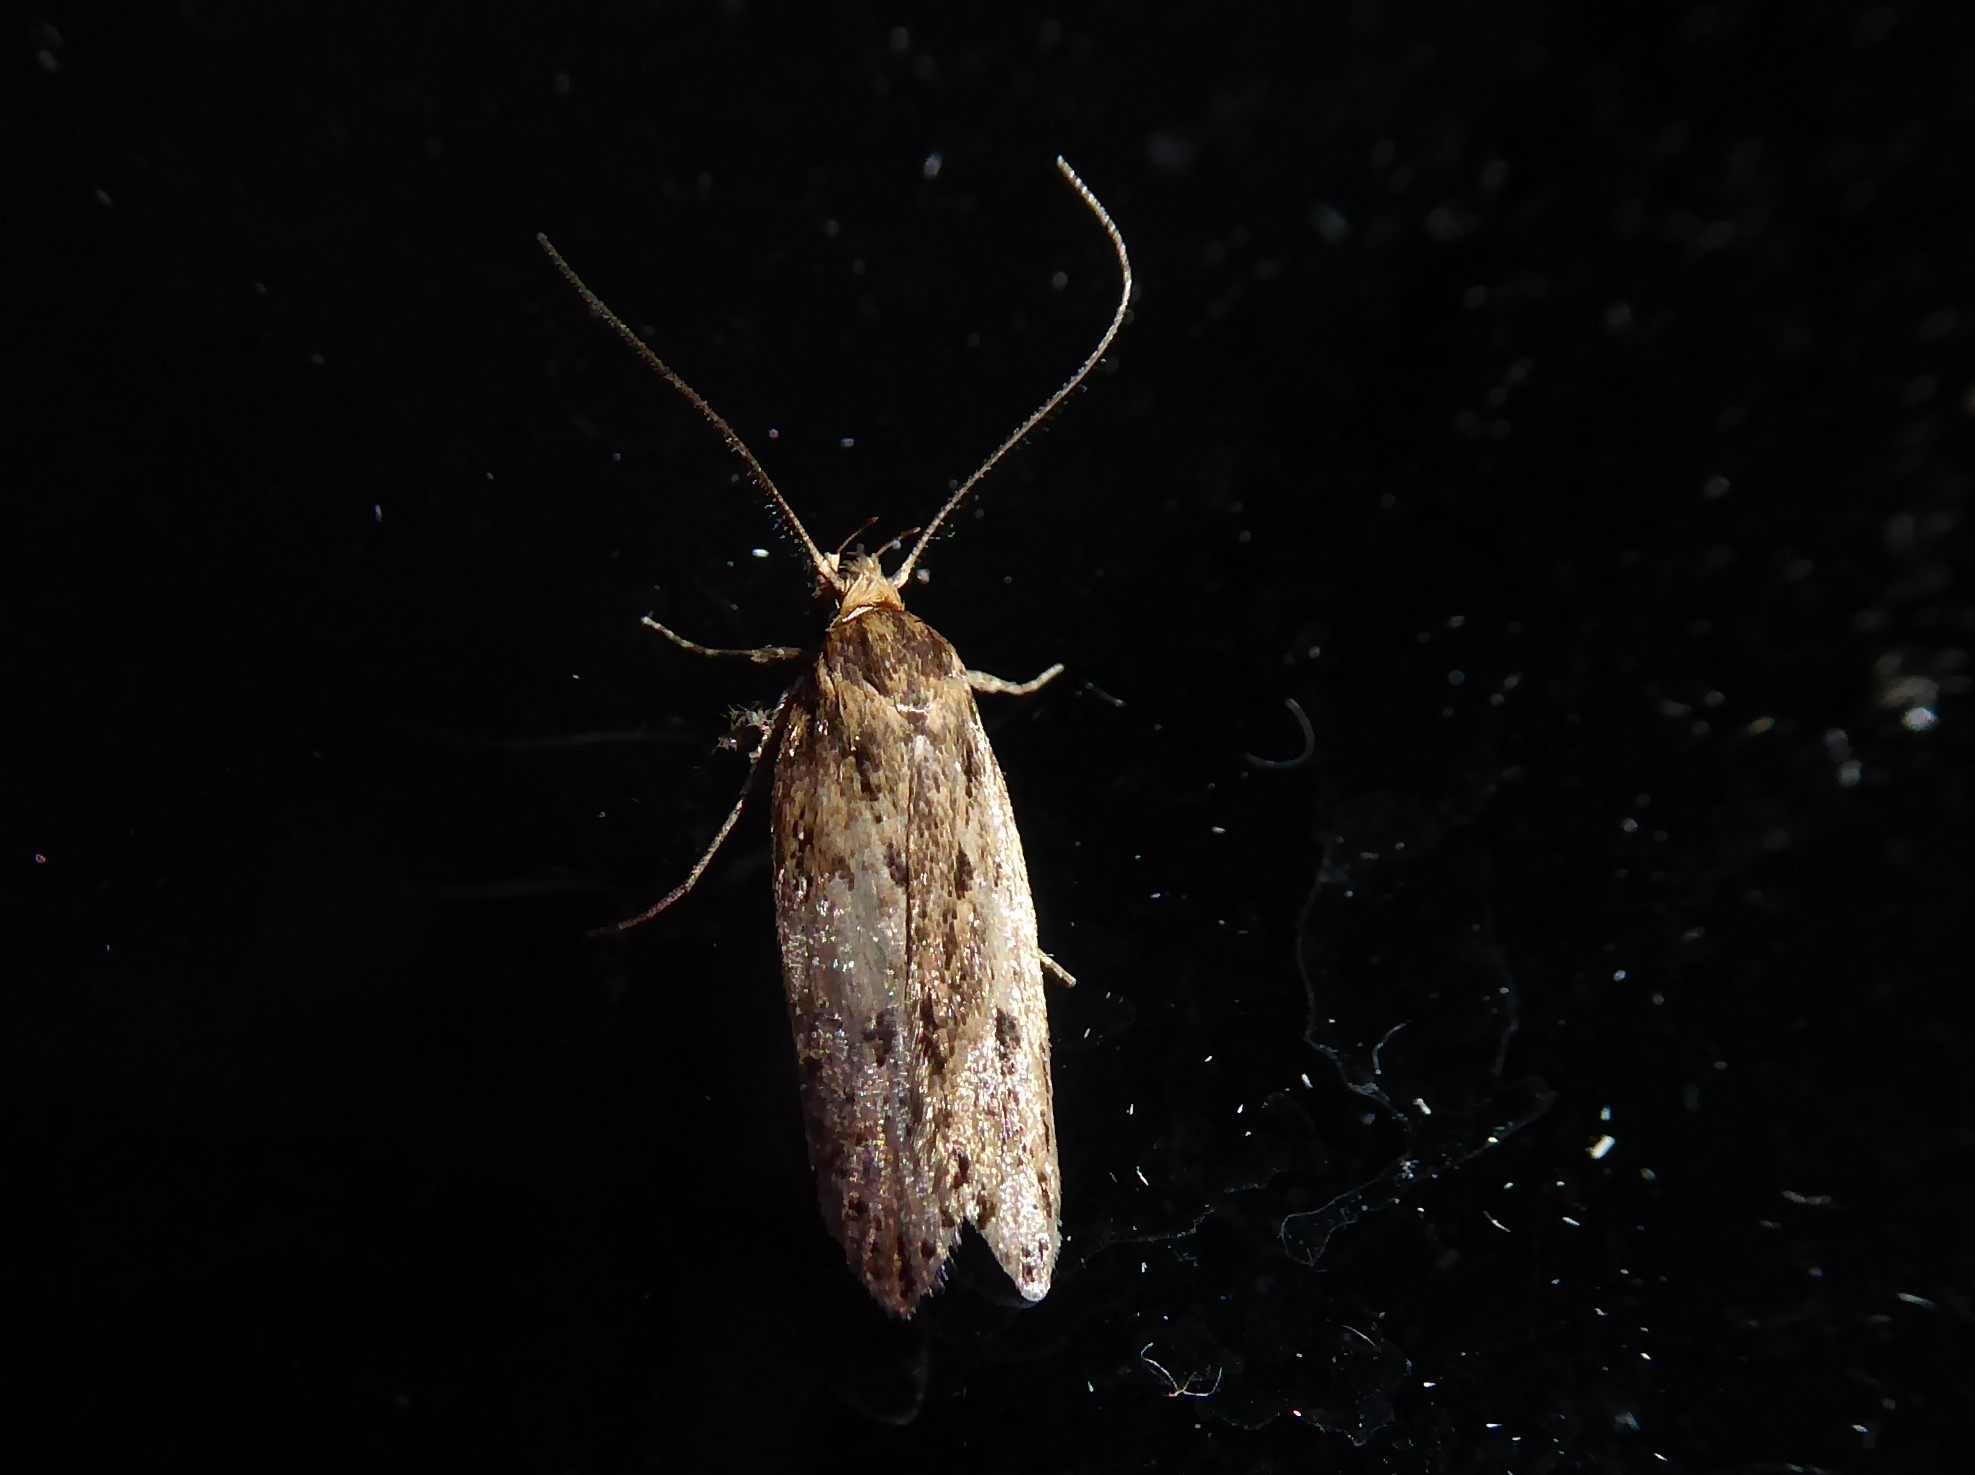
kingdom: Animalia
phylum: Arthropoda
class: Insecta
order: Lepidoptera
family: Oecophoridae
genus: Hofmannophila
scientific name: Hofmannophila pseudospretella
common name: Brown house moth
